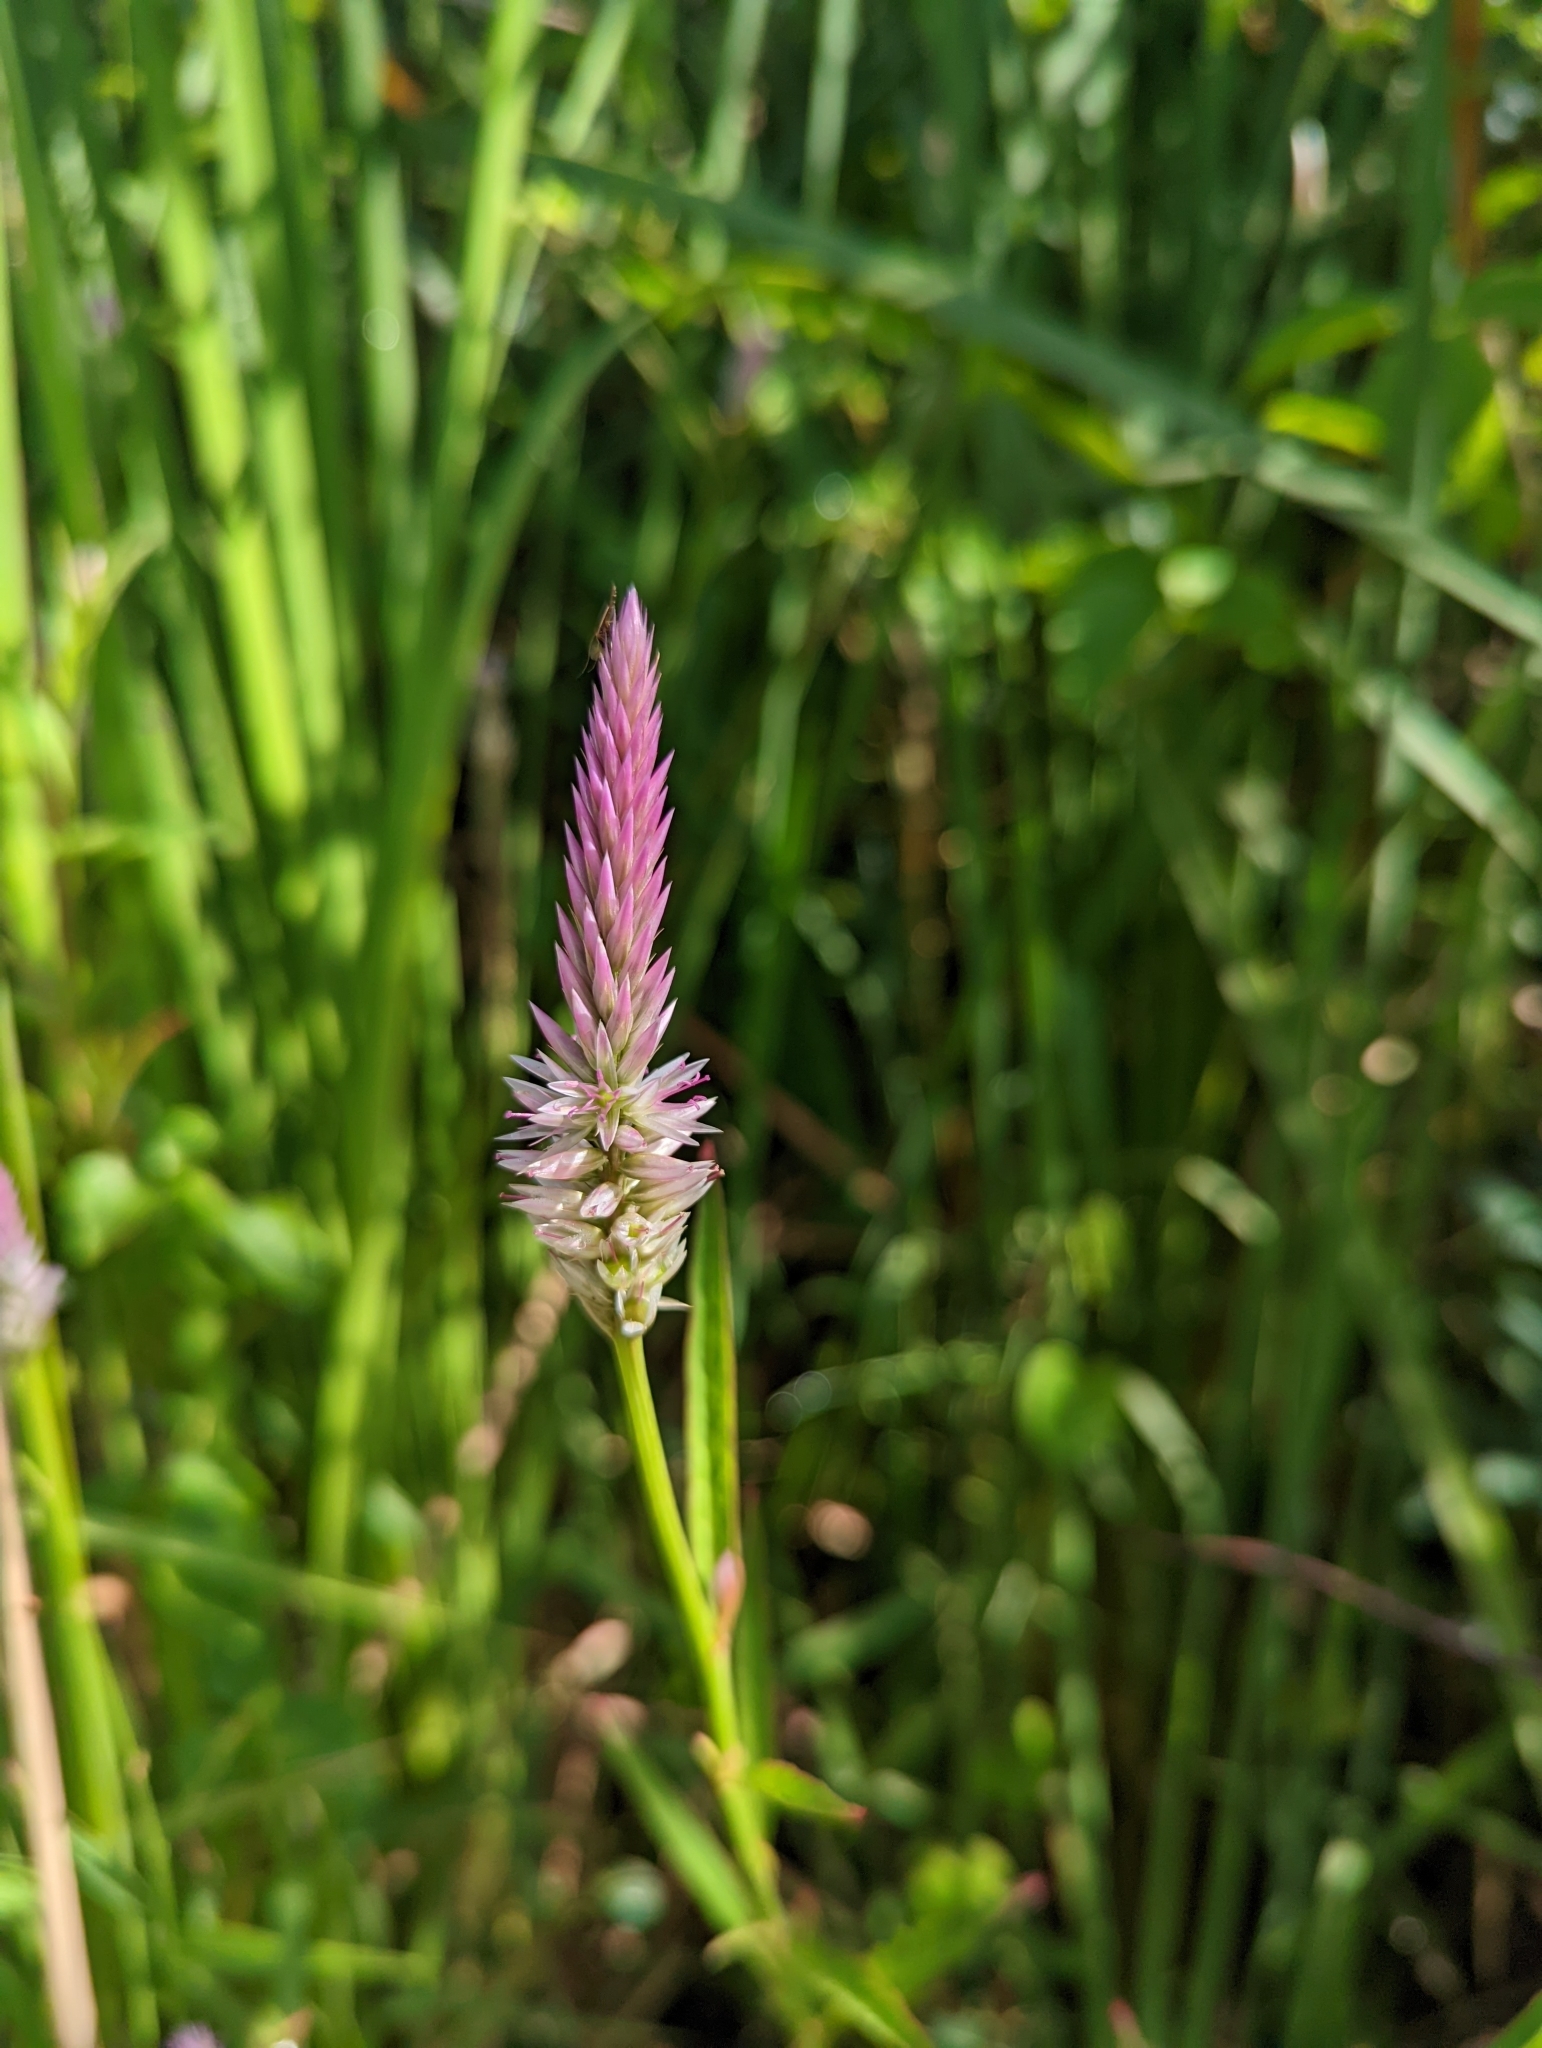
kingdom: Plantae
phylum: Tracheophyta
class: Magnoliopsida
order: Caryophyllales
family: Amaranthaceae
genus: Celosia
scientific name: Celosia argentea
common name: Feather cockscomb
